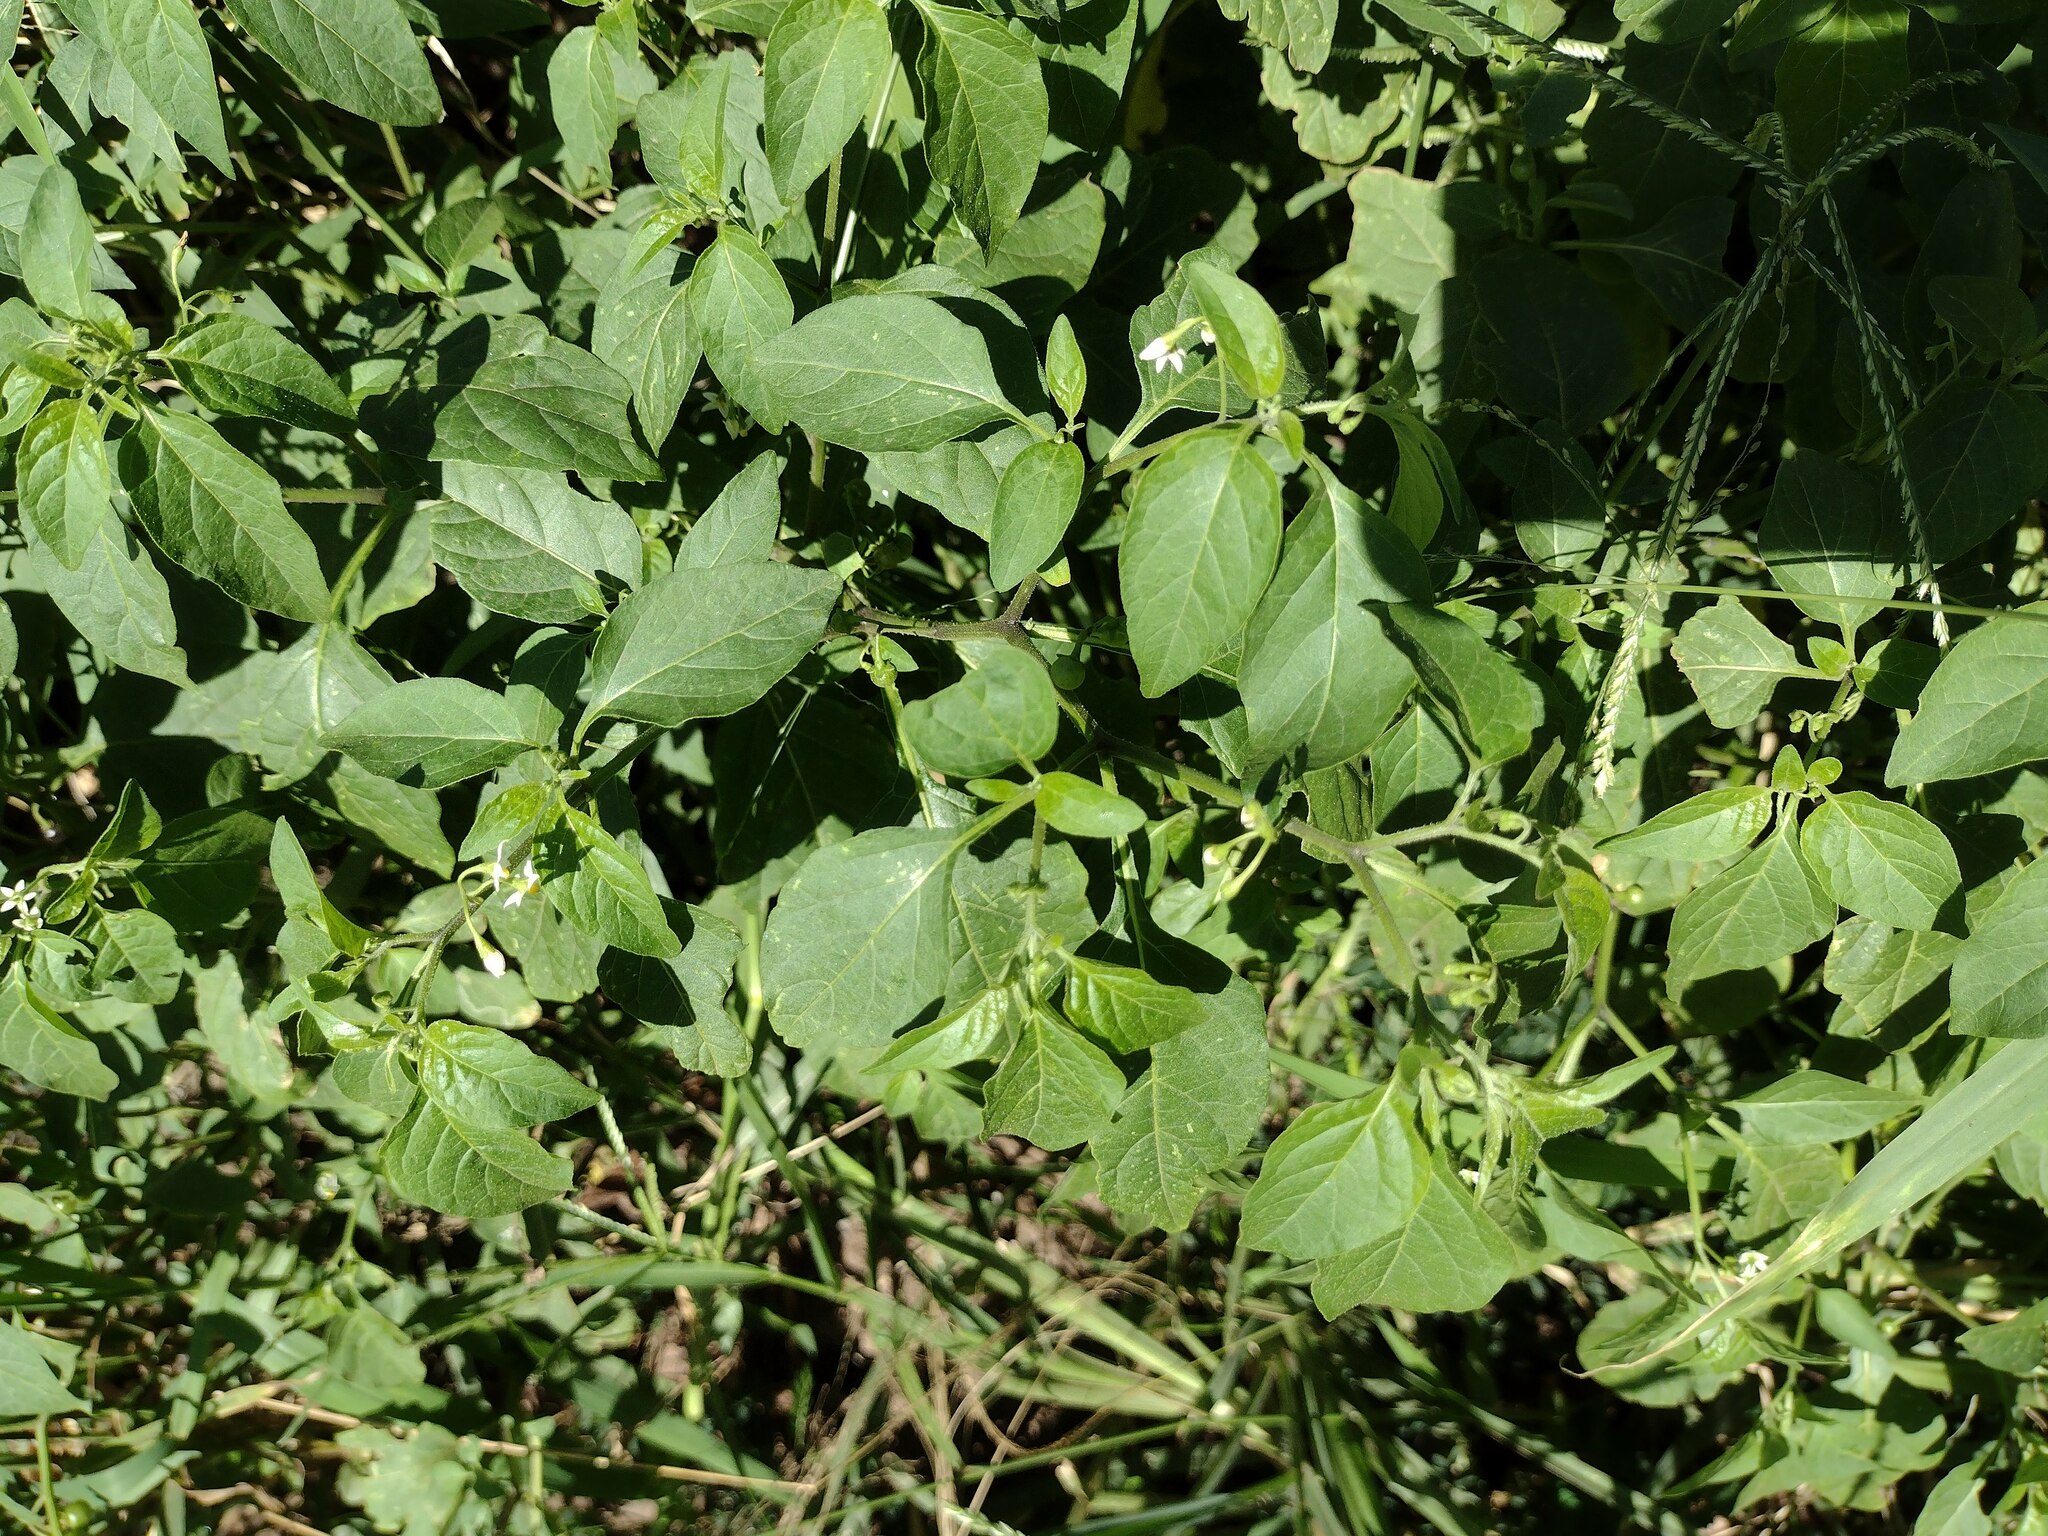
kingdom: Plantae
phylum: Tracheophyta
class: Magnoliopsida
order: Solanales
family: Solanaceae
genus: Solanum
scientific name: Solanum americanum
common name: American black nightshade
